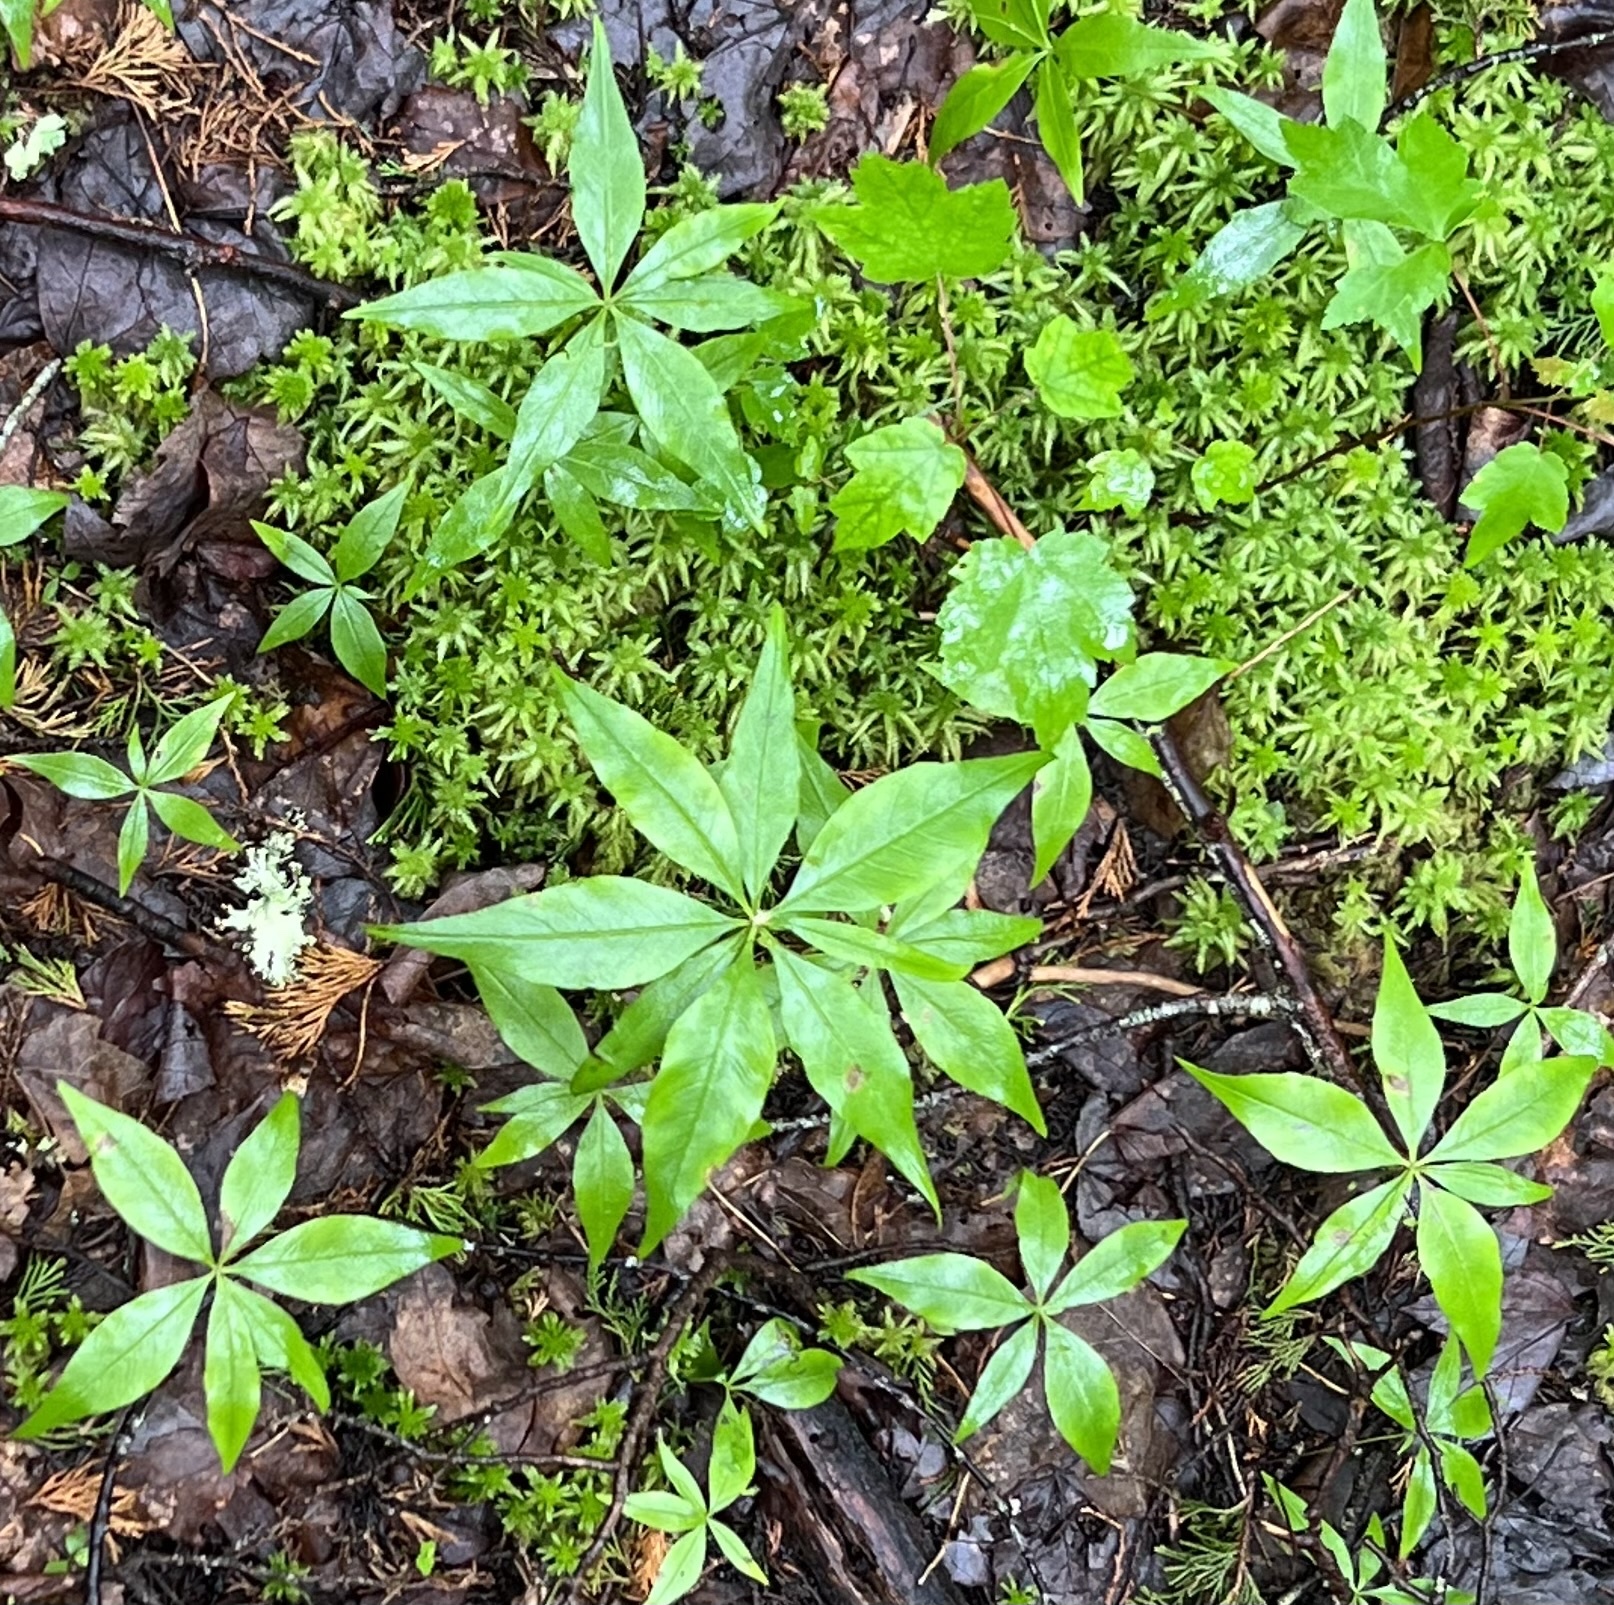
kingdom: Plantae
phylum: Tracheophyta
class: Magnoliopsida
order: Ericales
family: Primulaceae
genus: Lysimachia
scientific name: Lysimachia borealis
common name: American starflower
